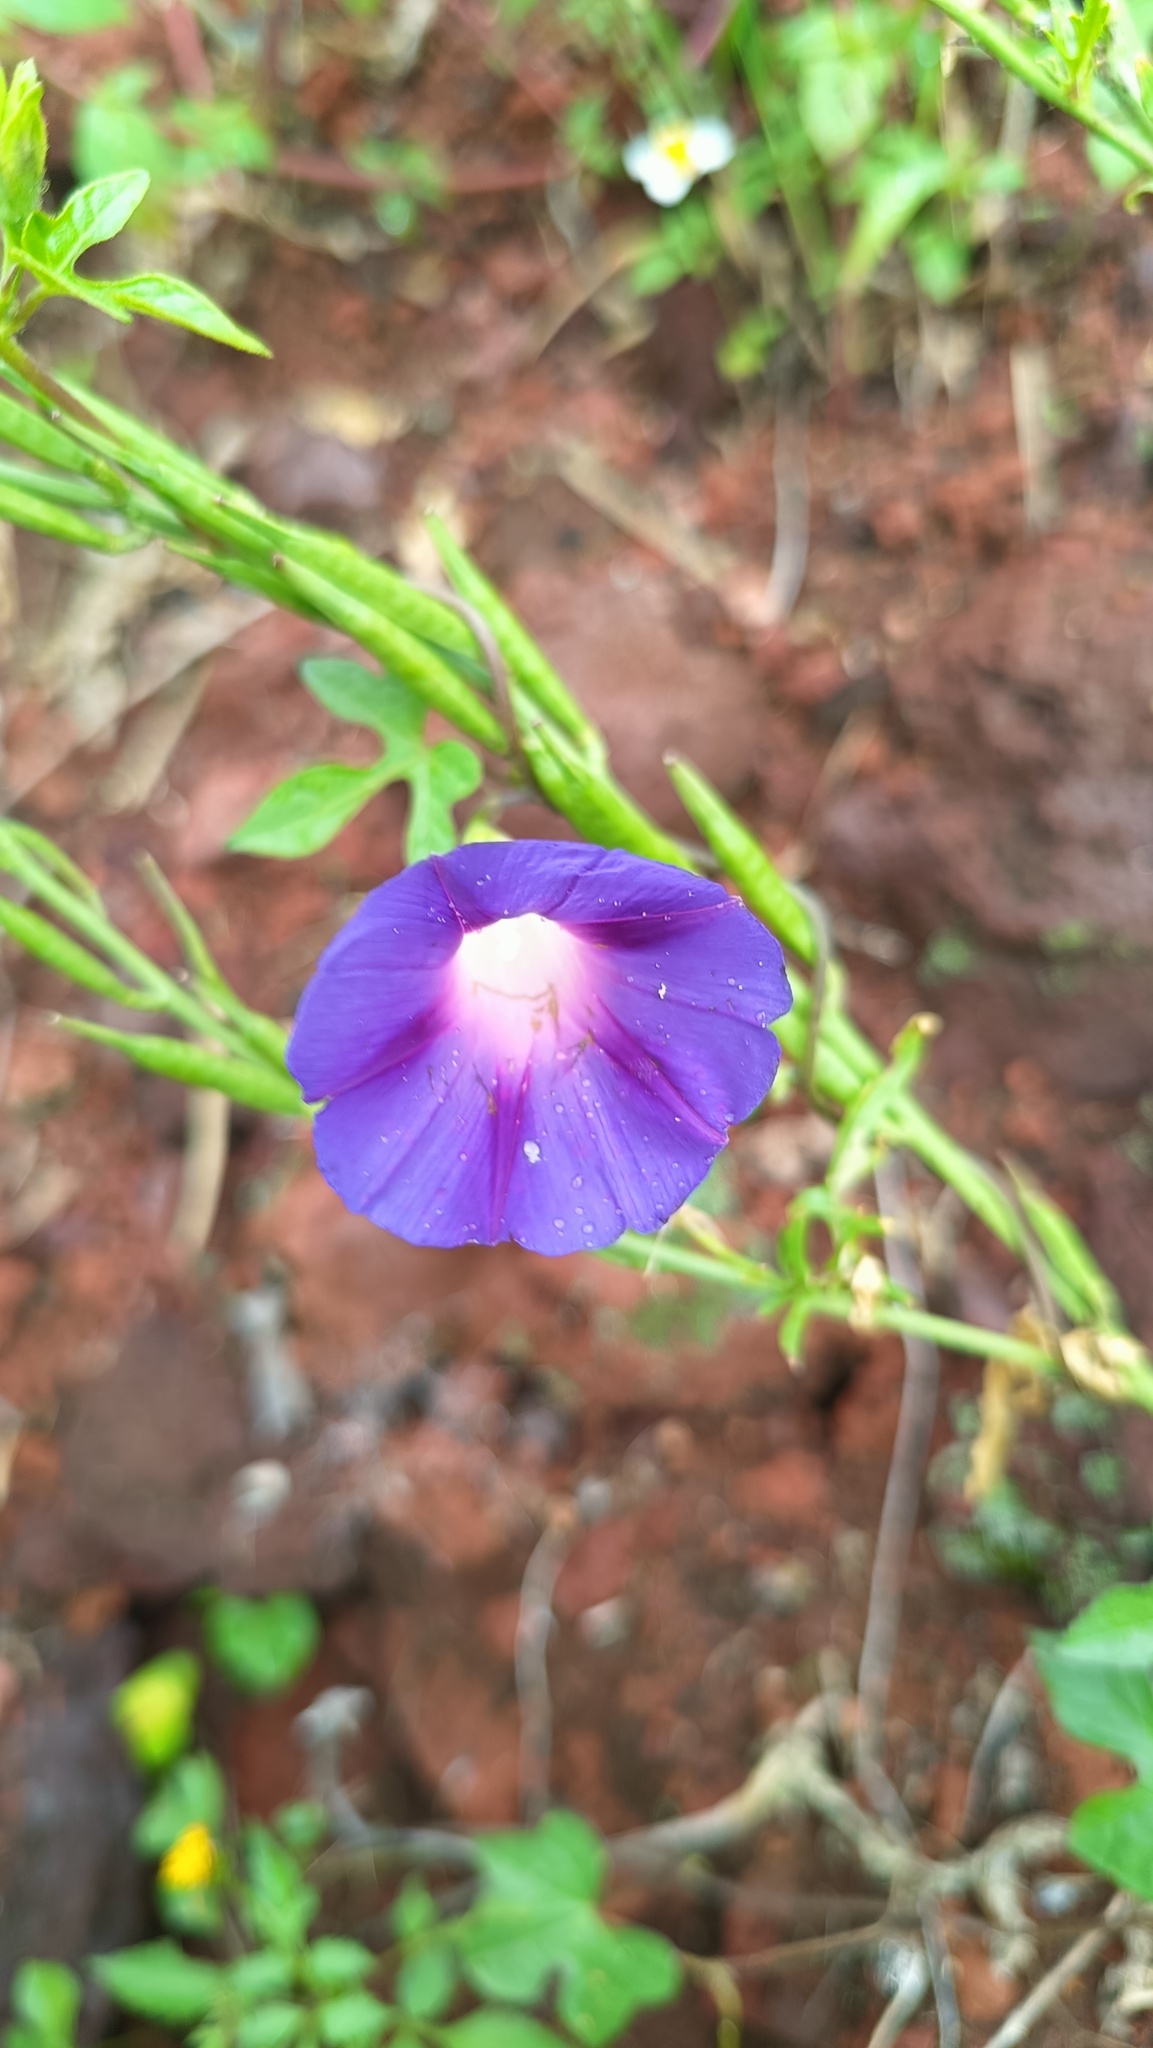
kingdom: Plantae
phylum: Tracheophyta
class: Magnoliopsida
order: Solanales
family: Convolvulaceae
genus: Ipomoea
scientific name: Ipomoea purpurea
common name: Common morning-glory
